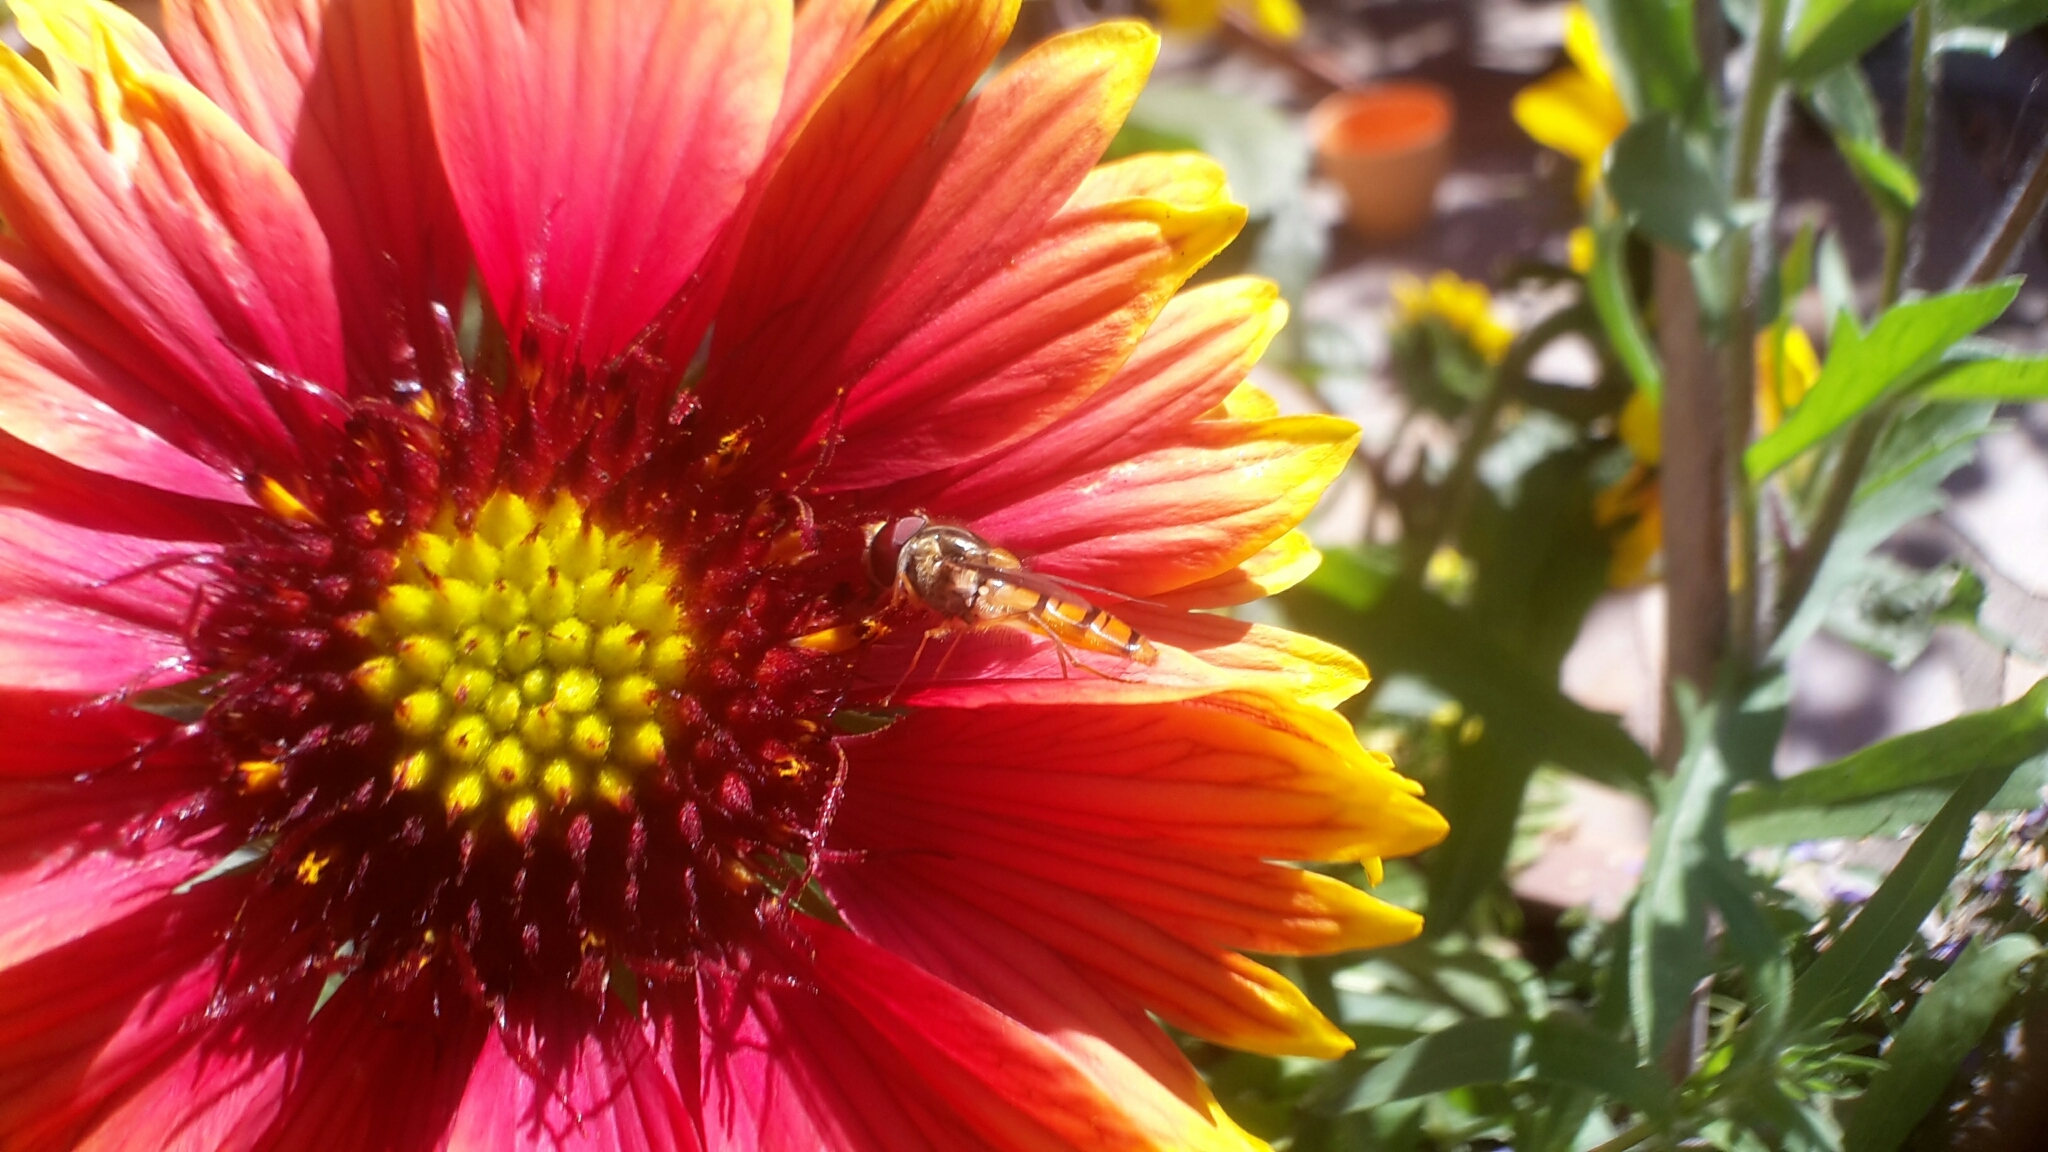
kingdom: Animalia
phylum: Arthropoda
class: Insecta
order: Diptera
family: Syrphidae
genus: Episyrphus
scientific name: Episyrphus balteatus
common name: Marmalade hoverfly
